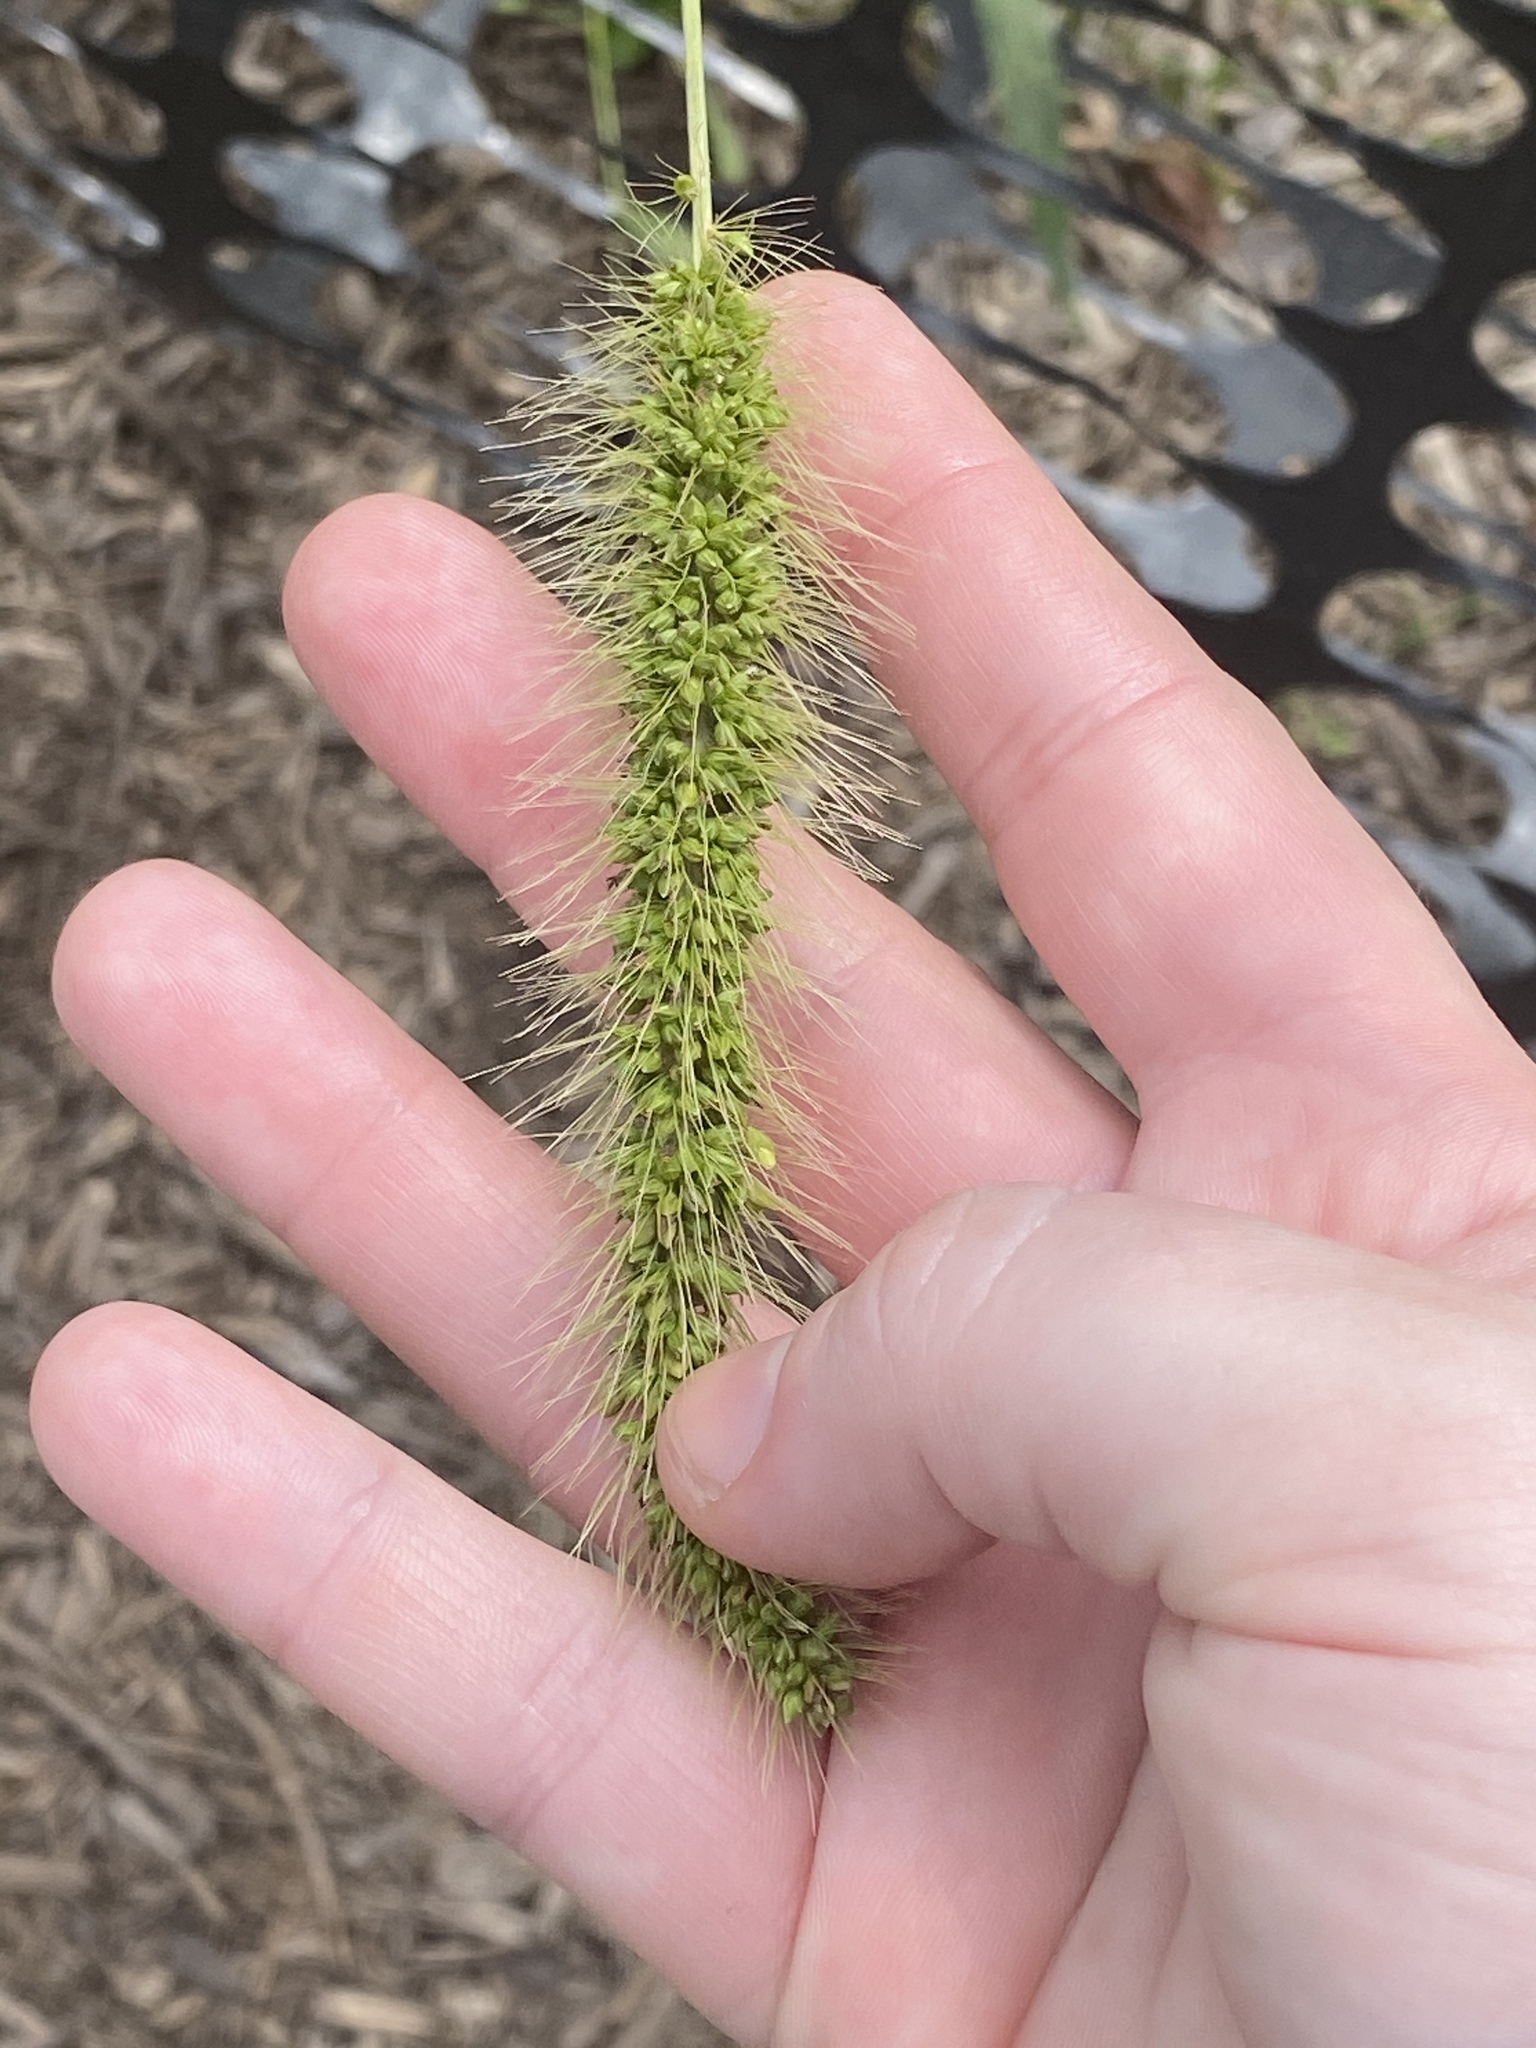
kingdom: Plantae
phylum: Tracheophyta
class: Liliopsida
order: Poales
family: Poaceae
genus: Setaria
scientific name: Setaria faberi
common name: Nodding bristle-grass
